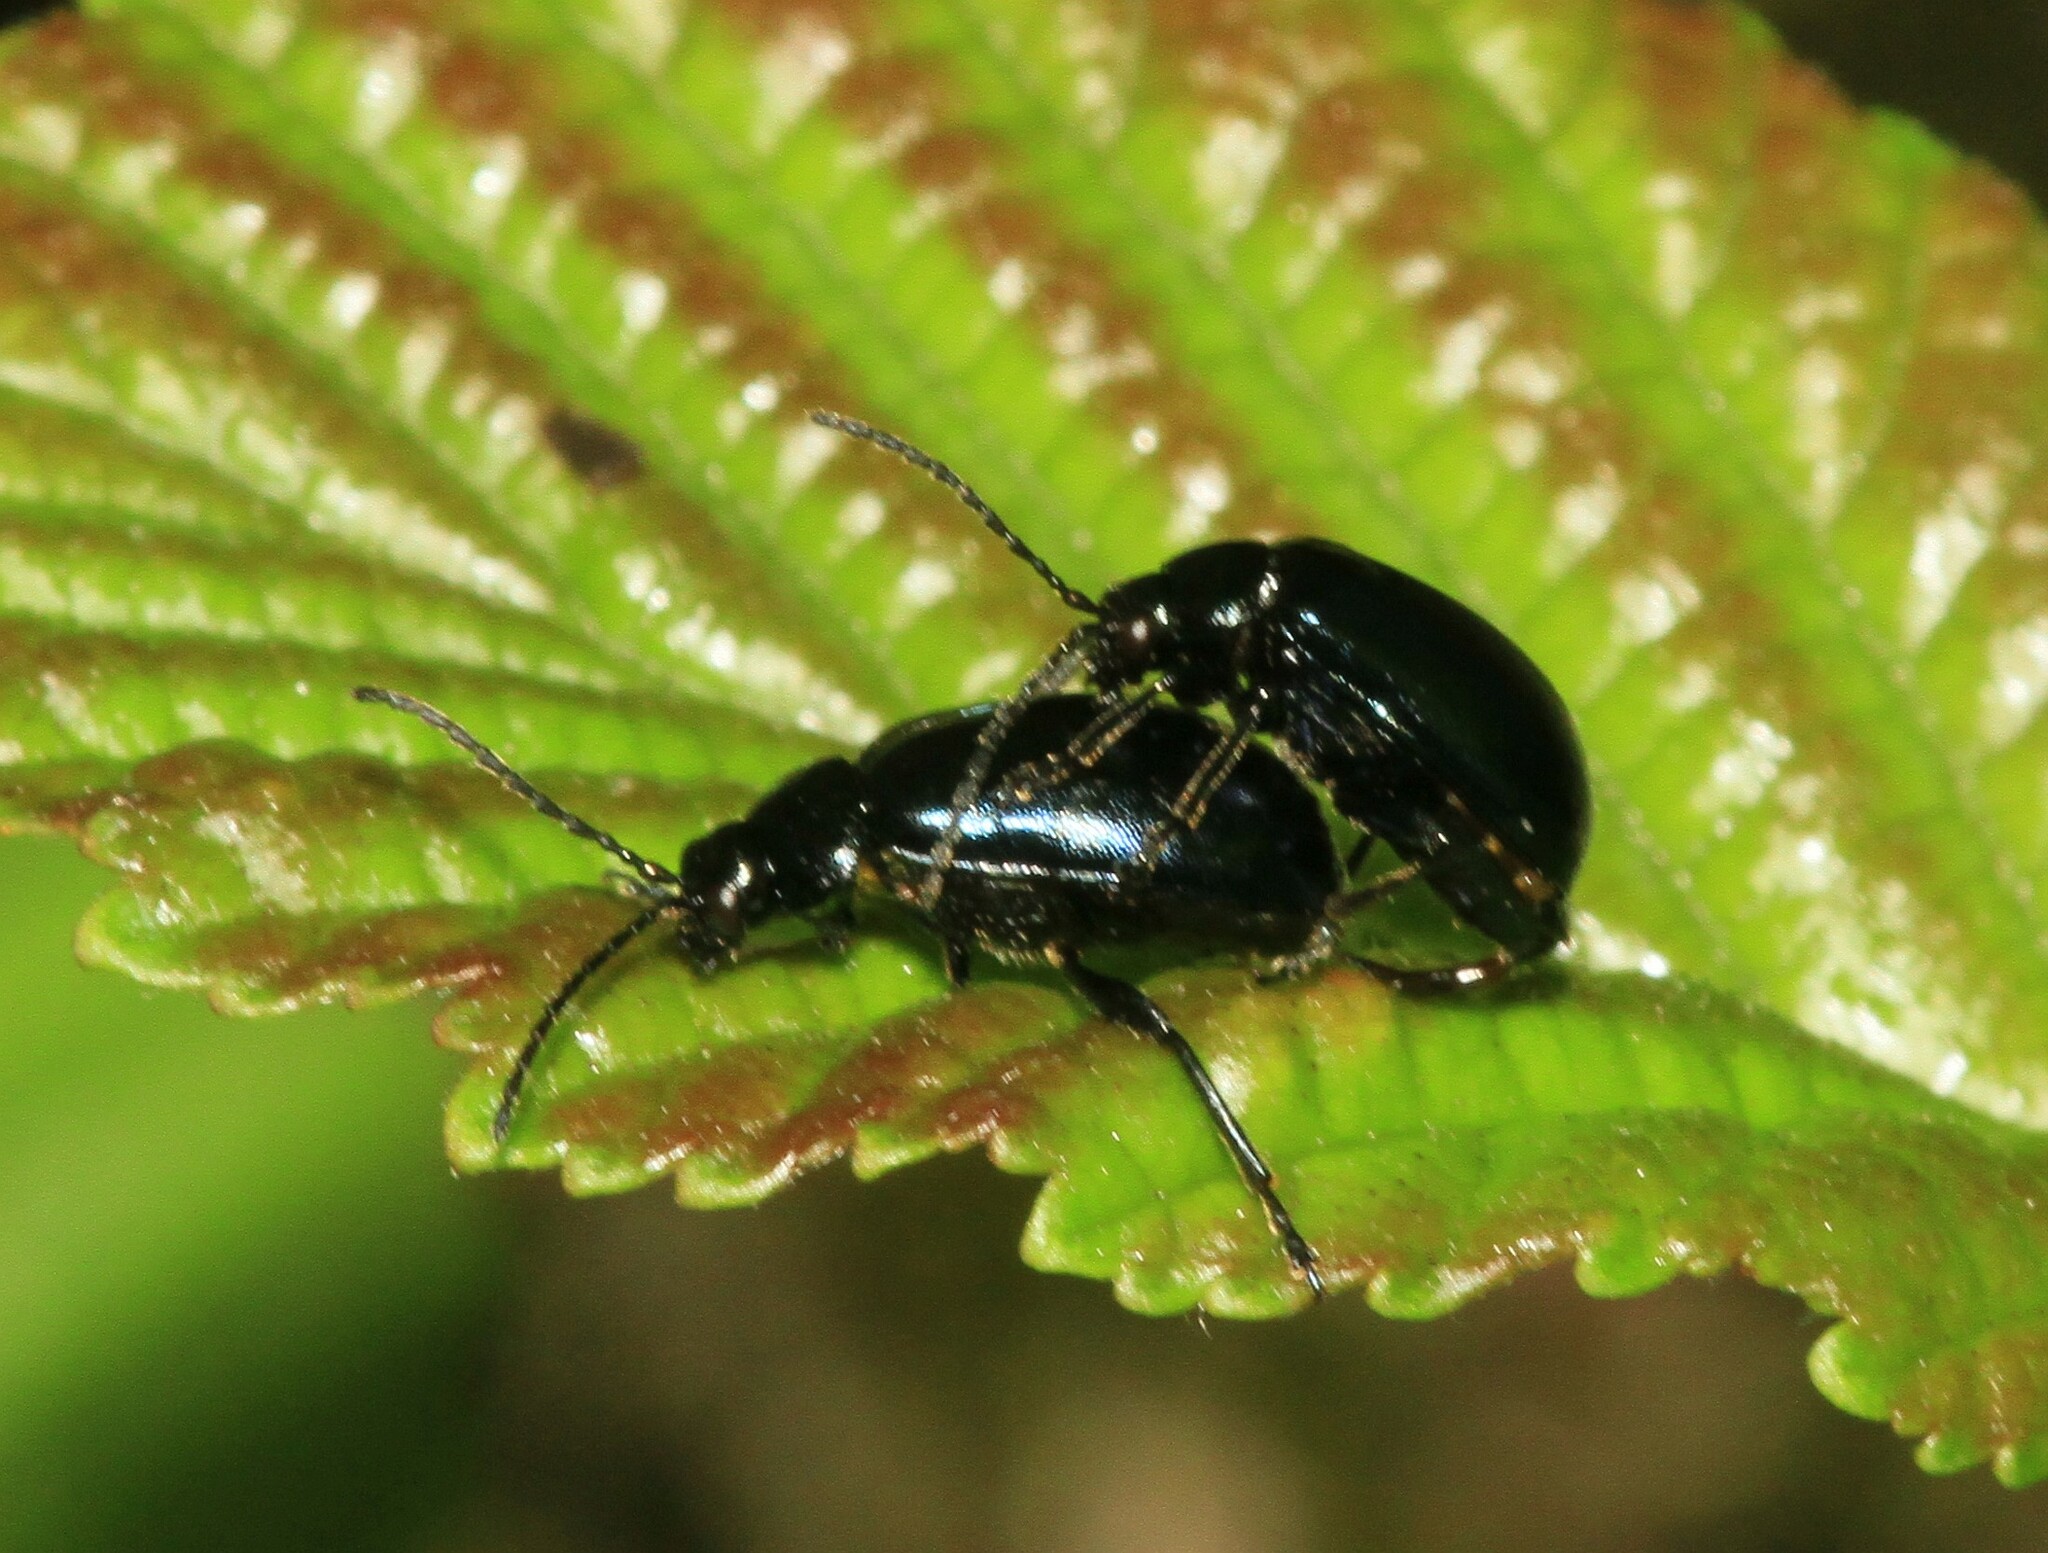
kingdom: Animalia
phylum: Arthropoda
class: Insecta
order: Coleoptera
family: Chrysomelidae
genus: Agelastica
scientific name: Agelastica alni
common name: Alder leaf beetle
